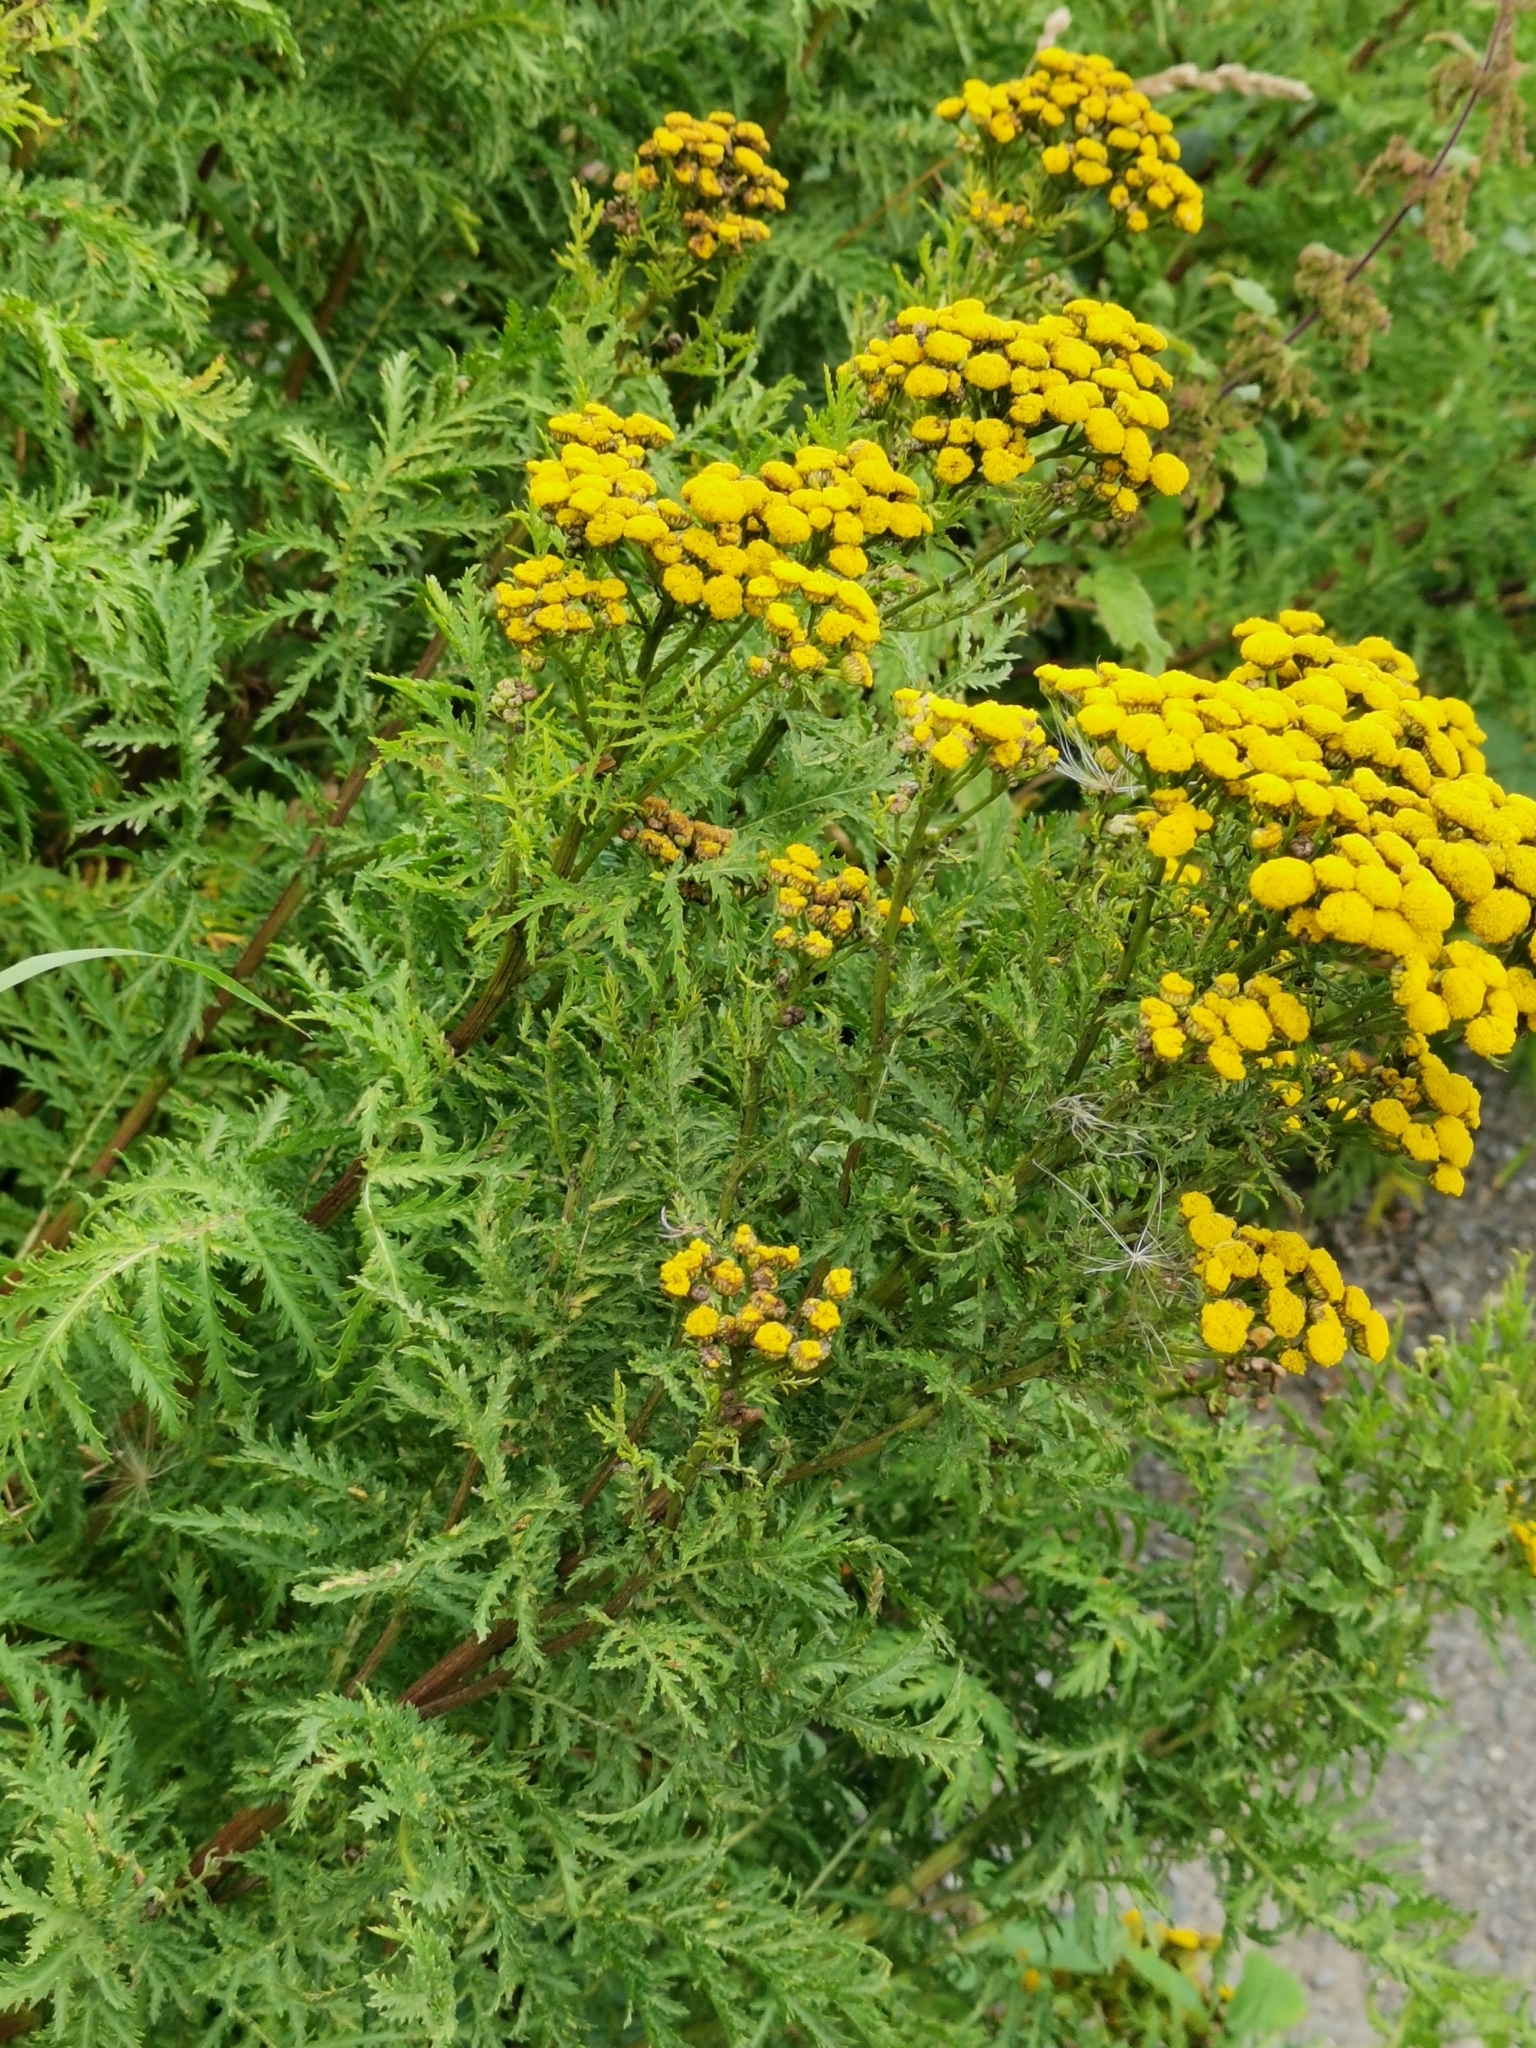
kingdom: Plantae
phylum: Tracheophyta
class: Magnoliopsida
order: Asterales
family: Asteraceae
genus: Tanacetum
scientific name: Tanacetum vulgare
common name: Common tansy
